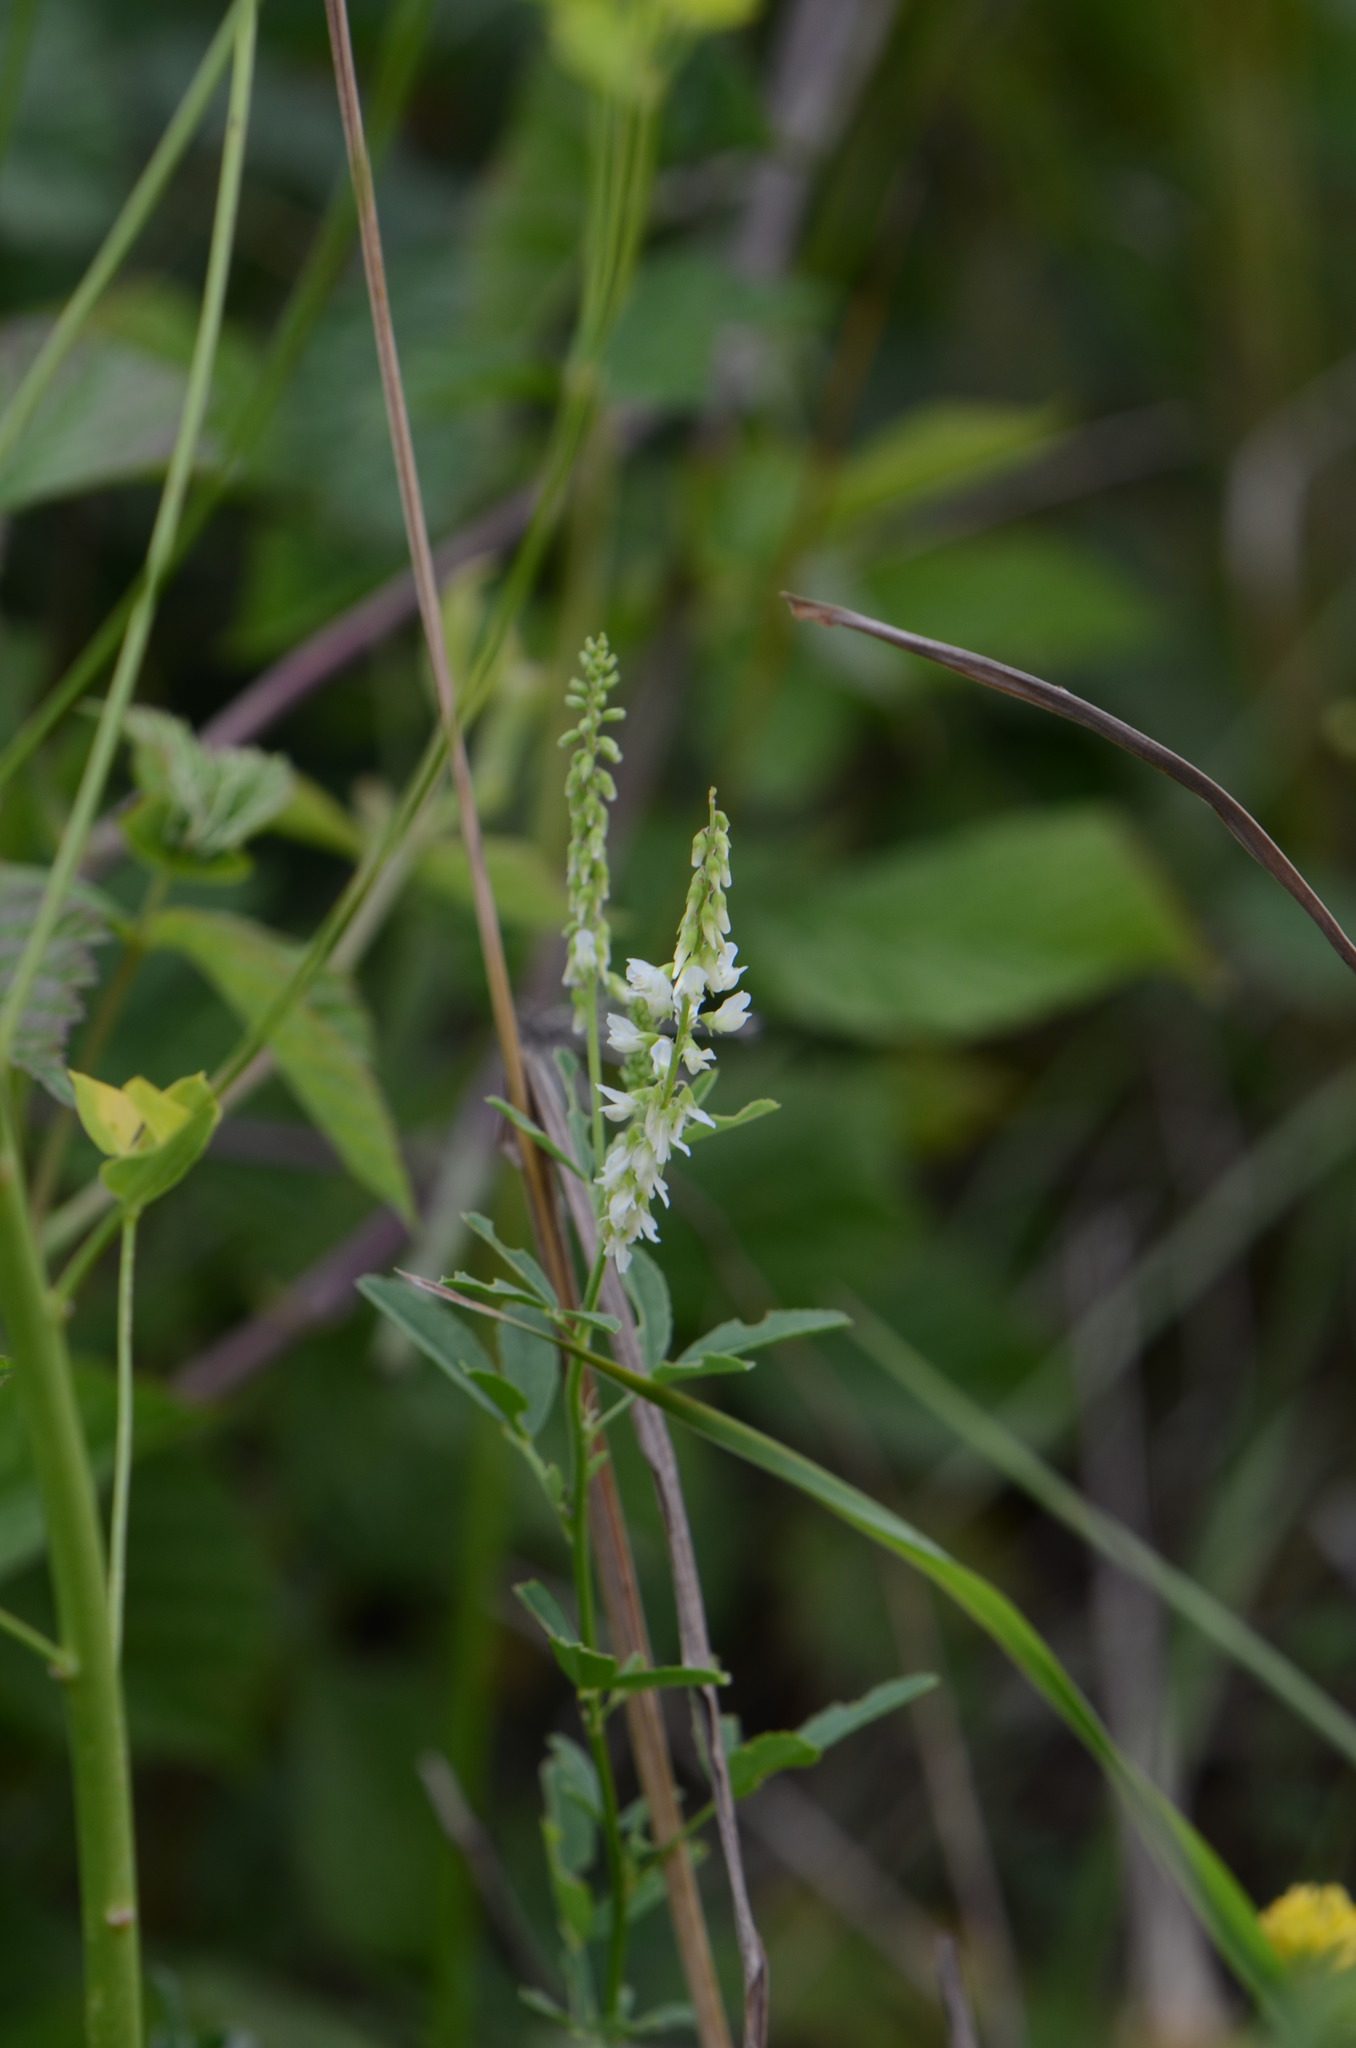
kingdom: Plantae
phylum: Tracheophyta
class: Magnoliopsida
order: Fabales
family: Fabaceae
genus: Melilotus
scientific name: Melilotus albus
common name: White melilot
